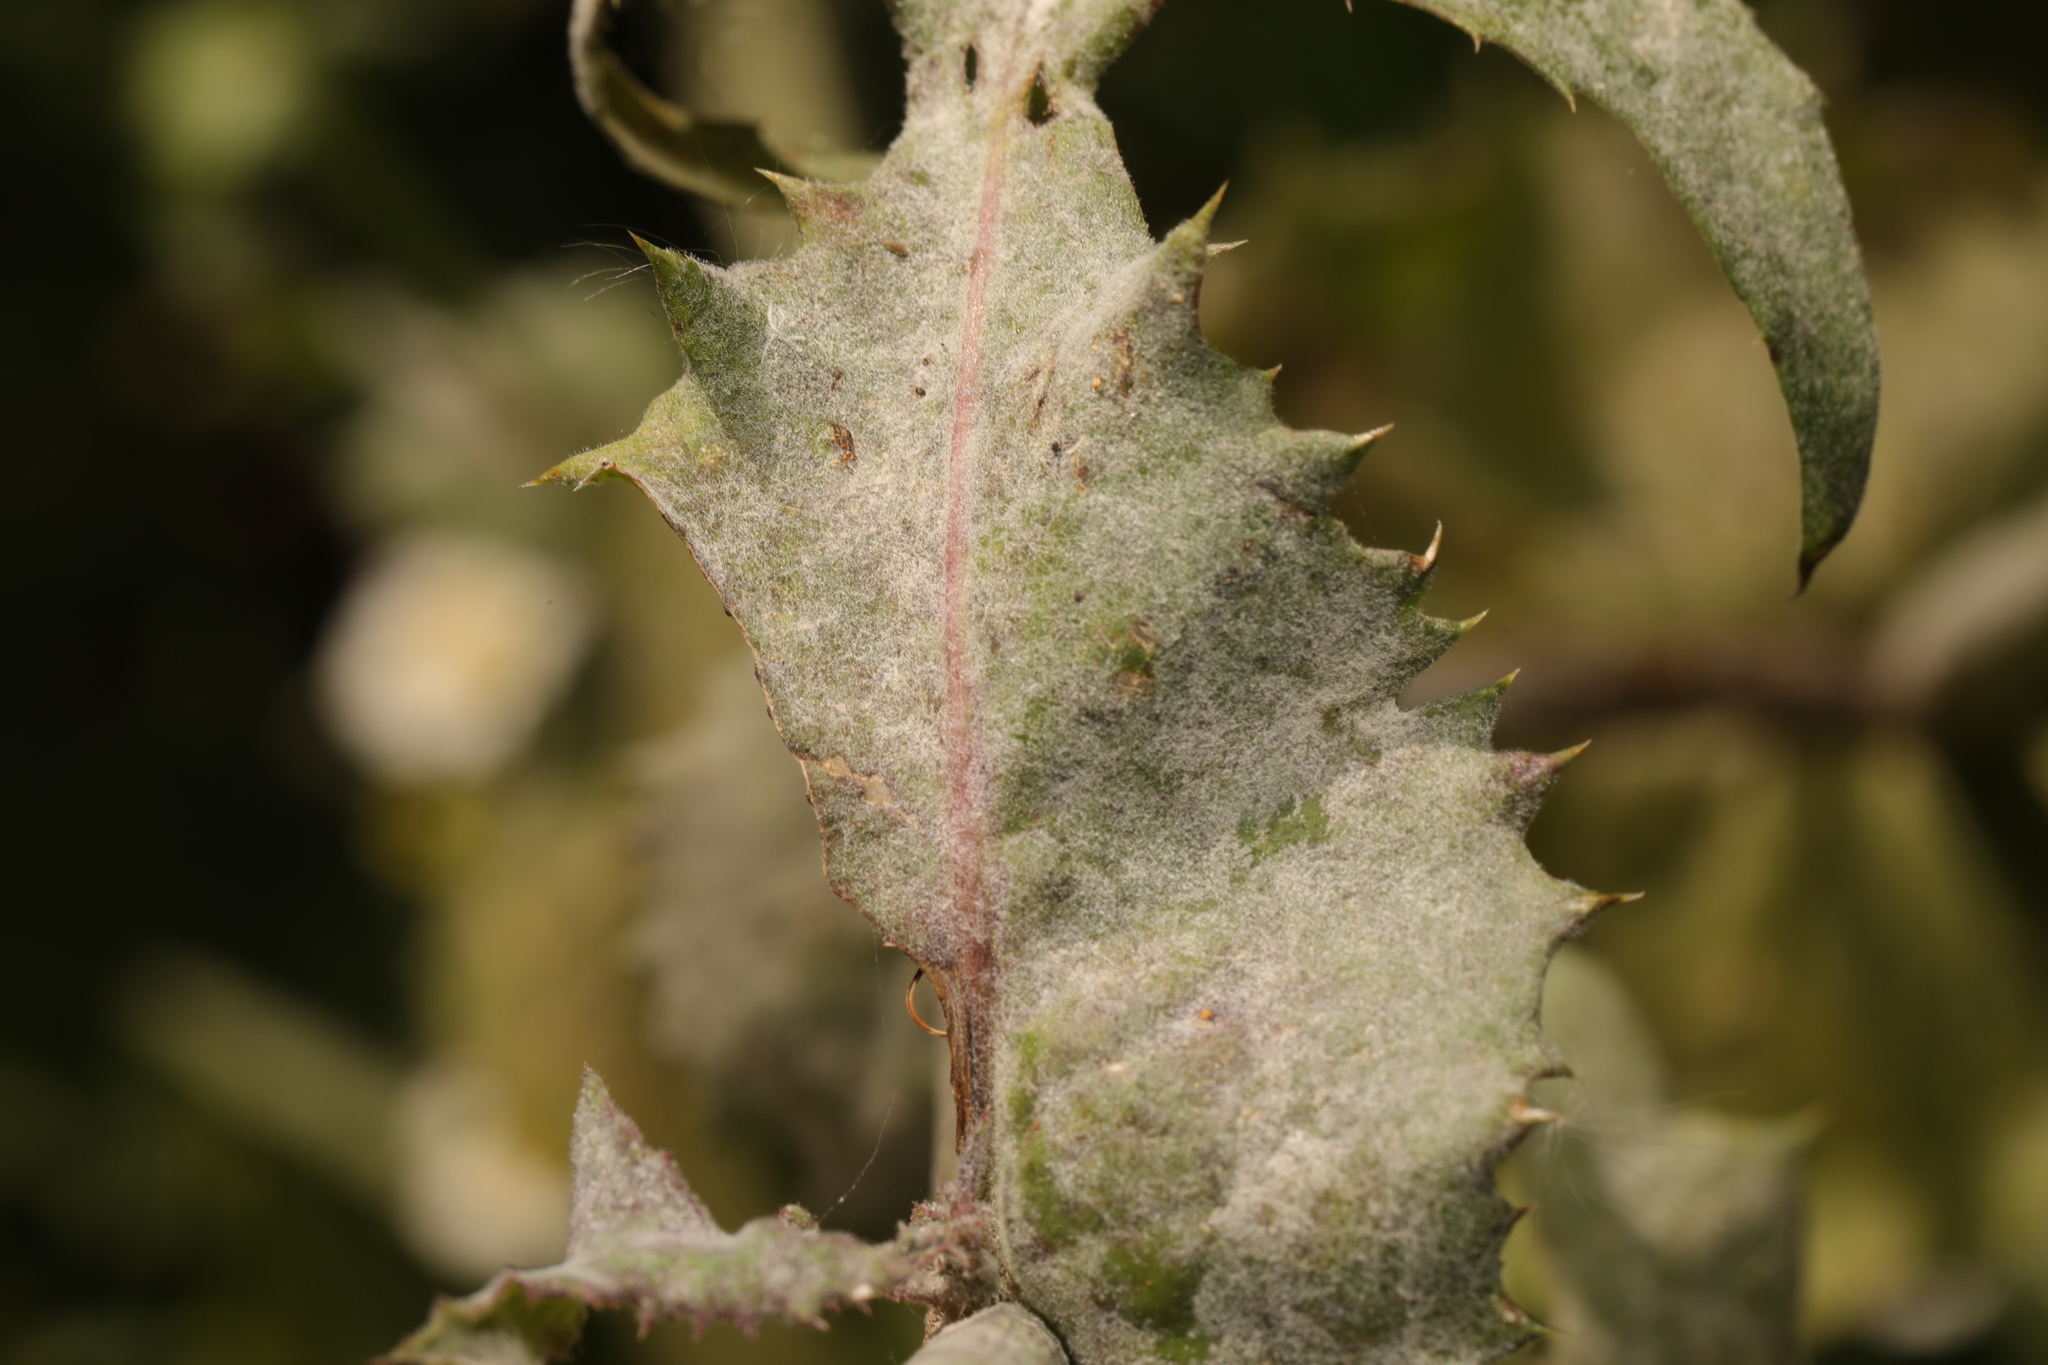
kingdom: Fungi
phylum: Ascomycota
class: Leotiomycetes
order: Helotiales
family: Erysiphaceae
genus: Golovinomyces
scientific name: Golovinomyces sonchicola
